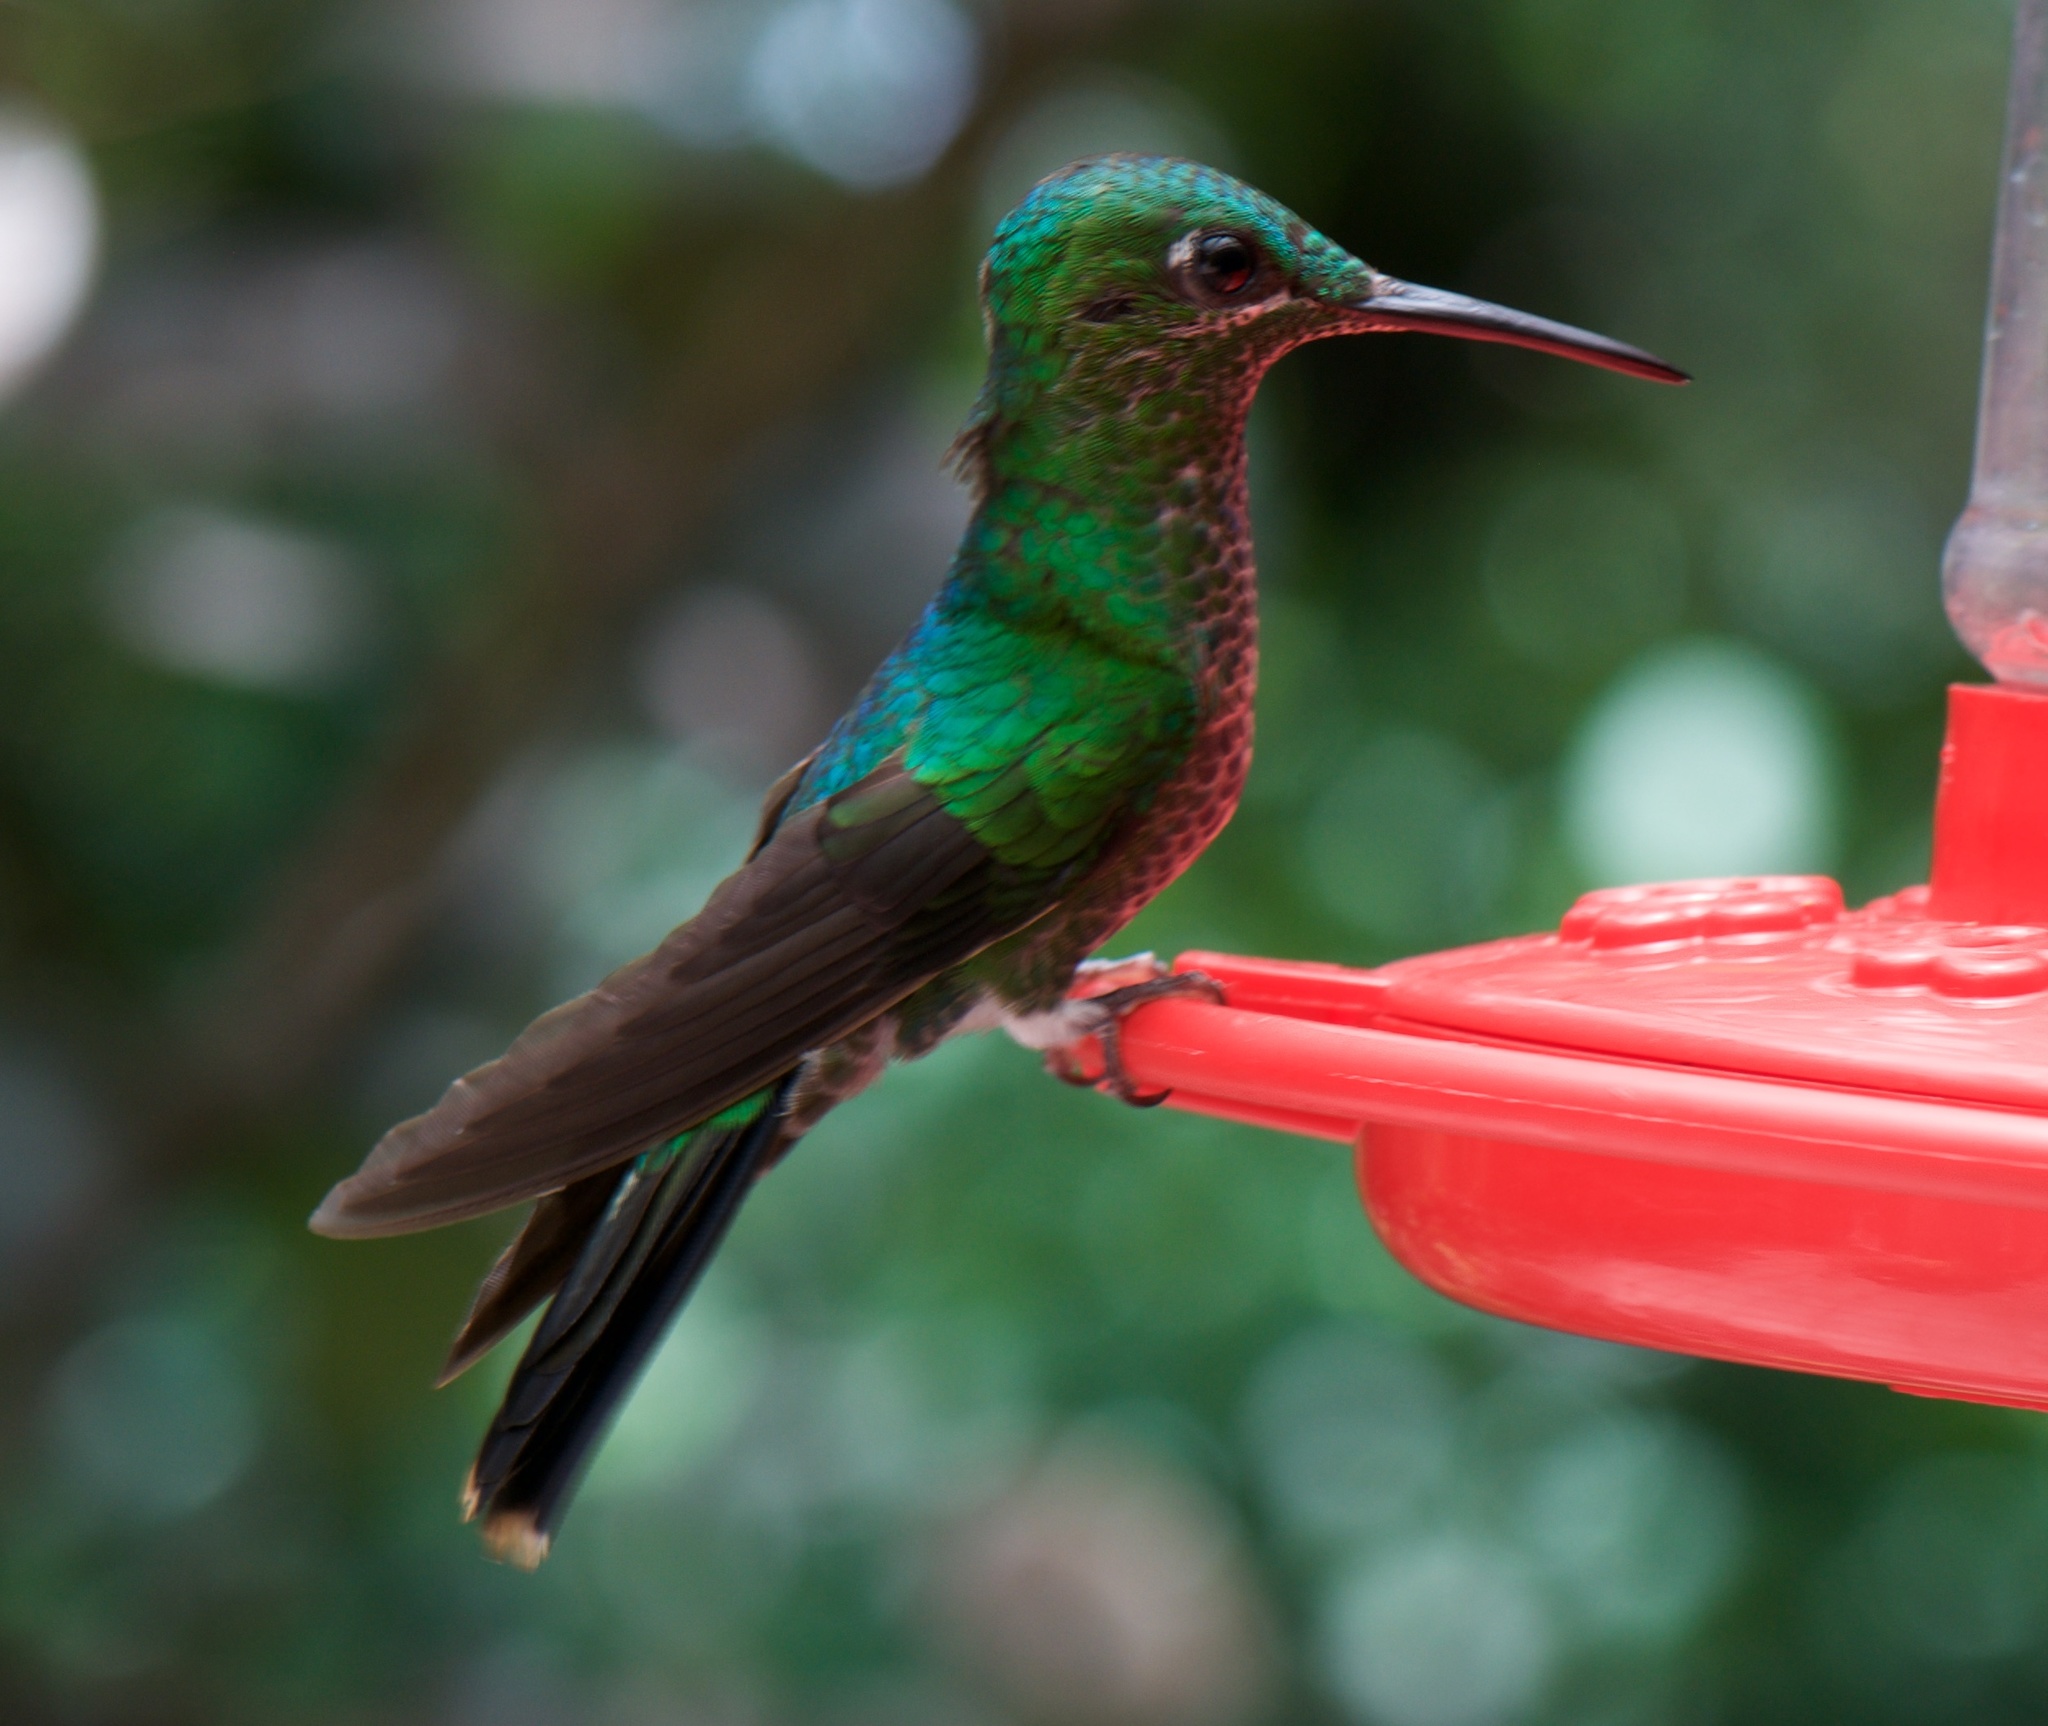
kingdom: Animalia
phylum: Chordata
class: Aves
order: Apodiformes
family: Trochilidae
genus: Heliodoxa
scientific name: Heliodoxa jacula
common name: Green-crowned brilliant
